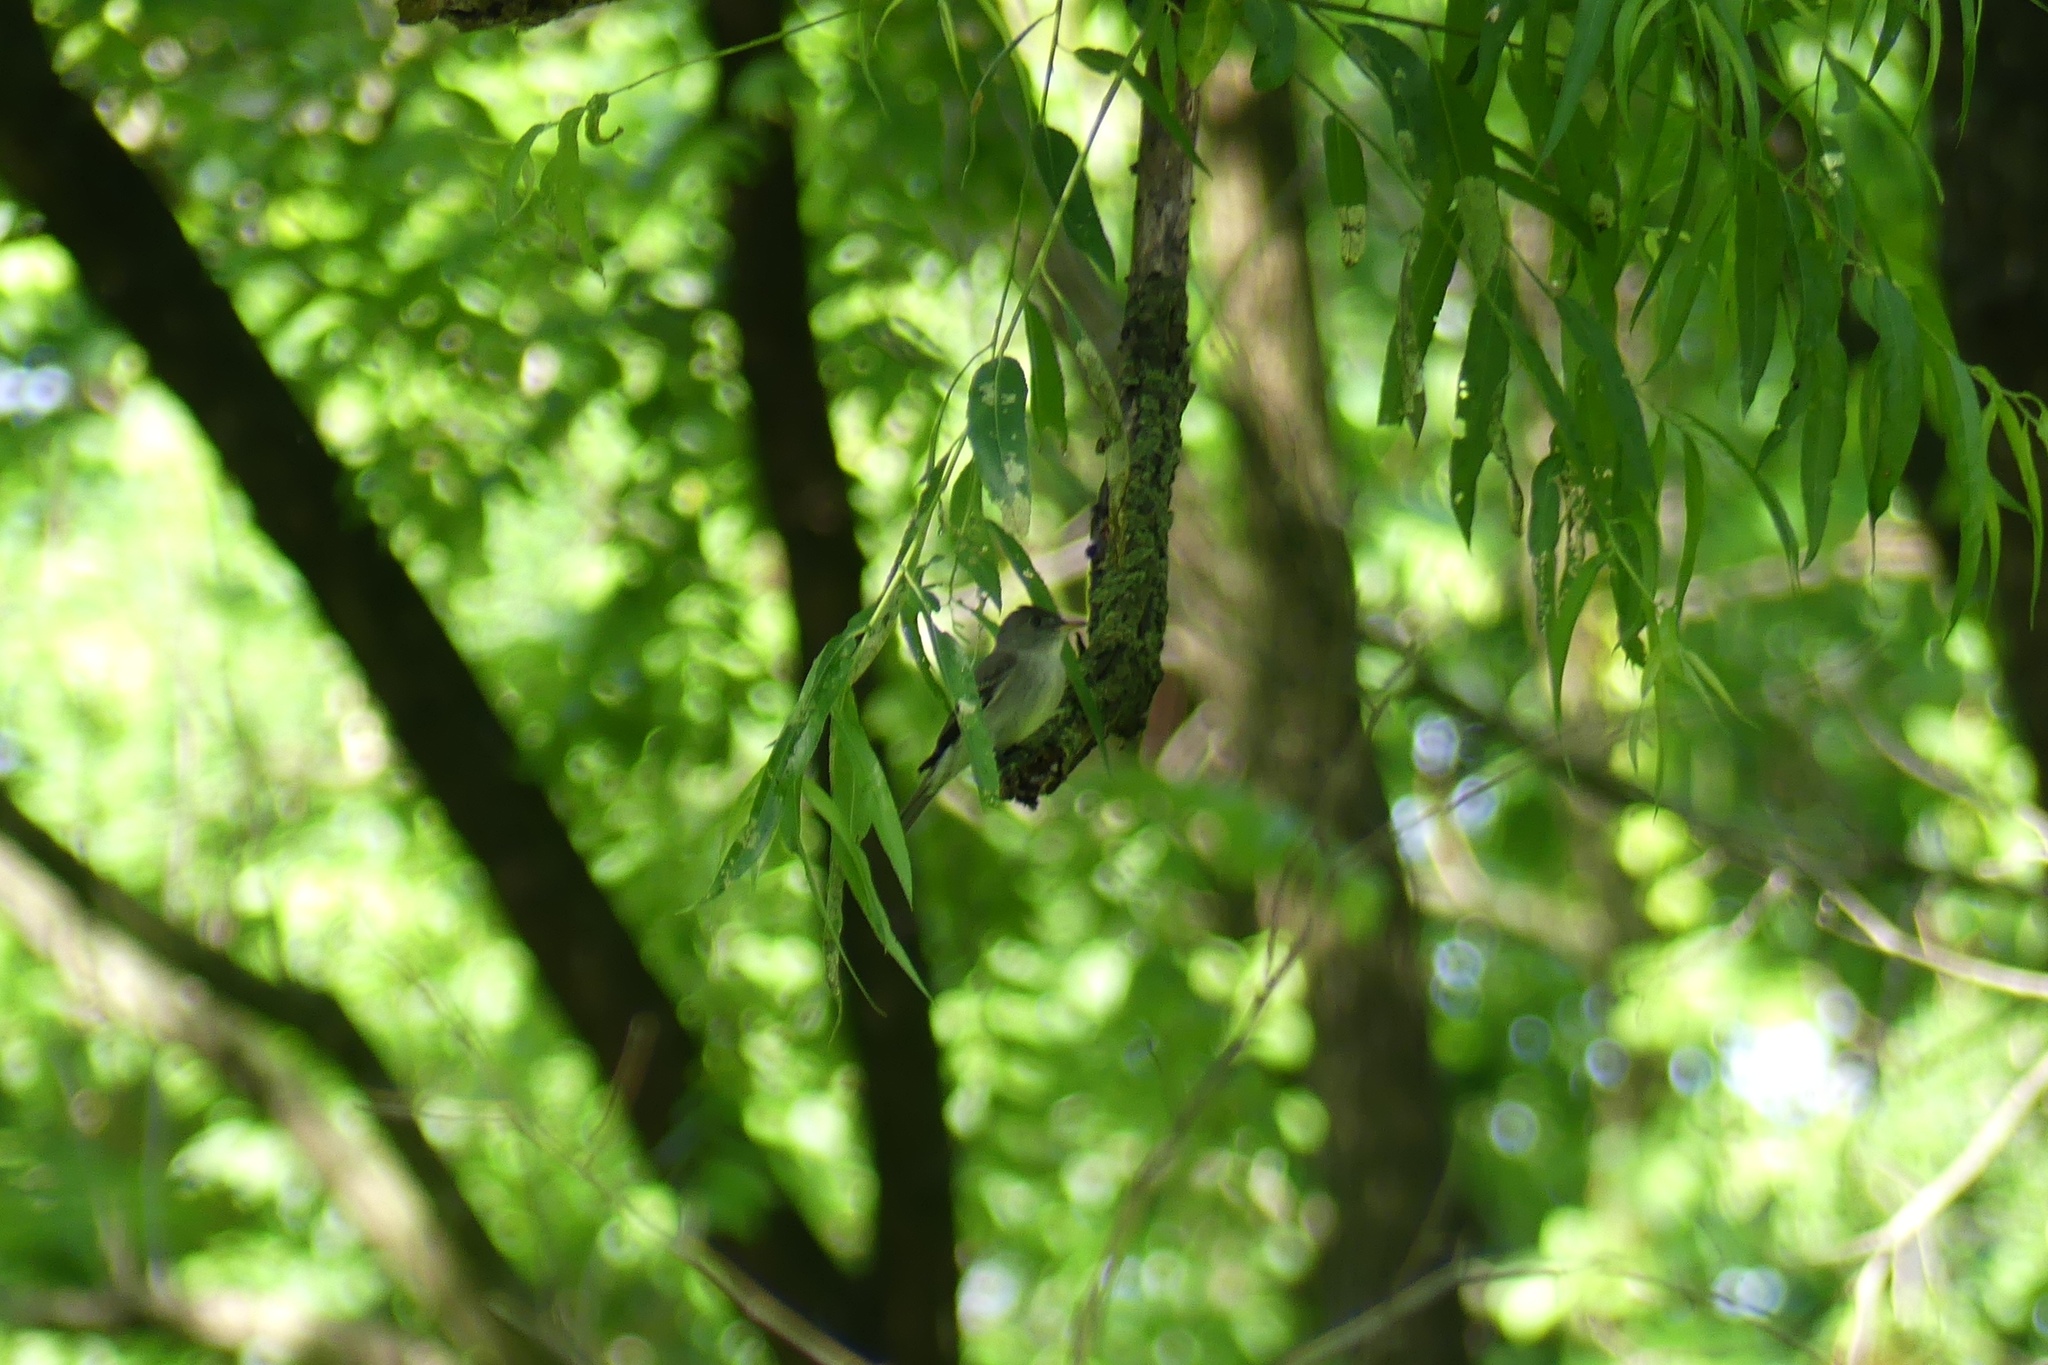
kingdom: Animalia
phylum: Chordata
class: Aves
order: Passeriformes
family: Tyrannidae
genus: Contopus
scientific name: Contopus virens
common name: Eastern wood-pewee
